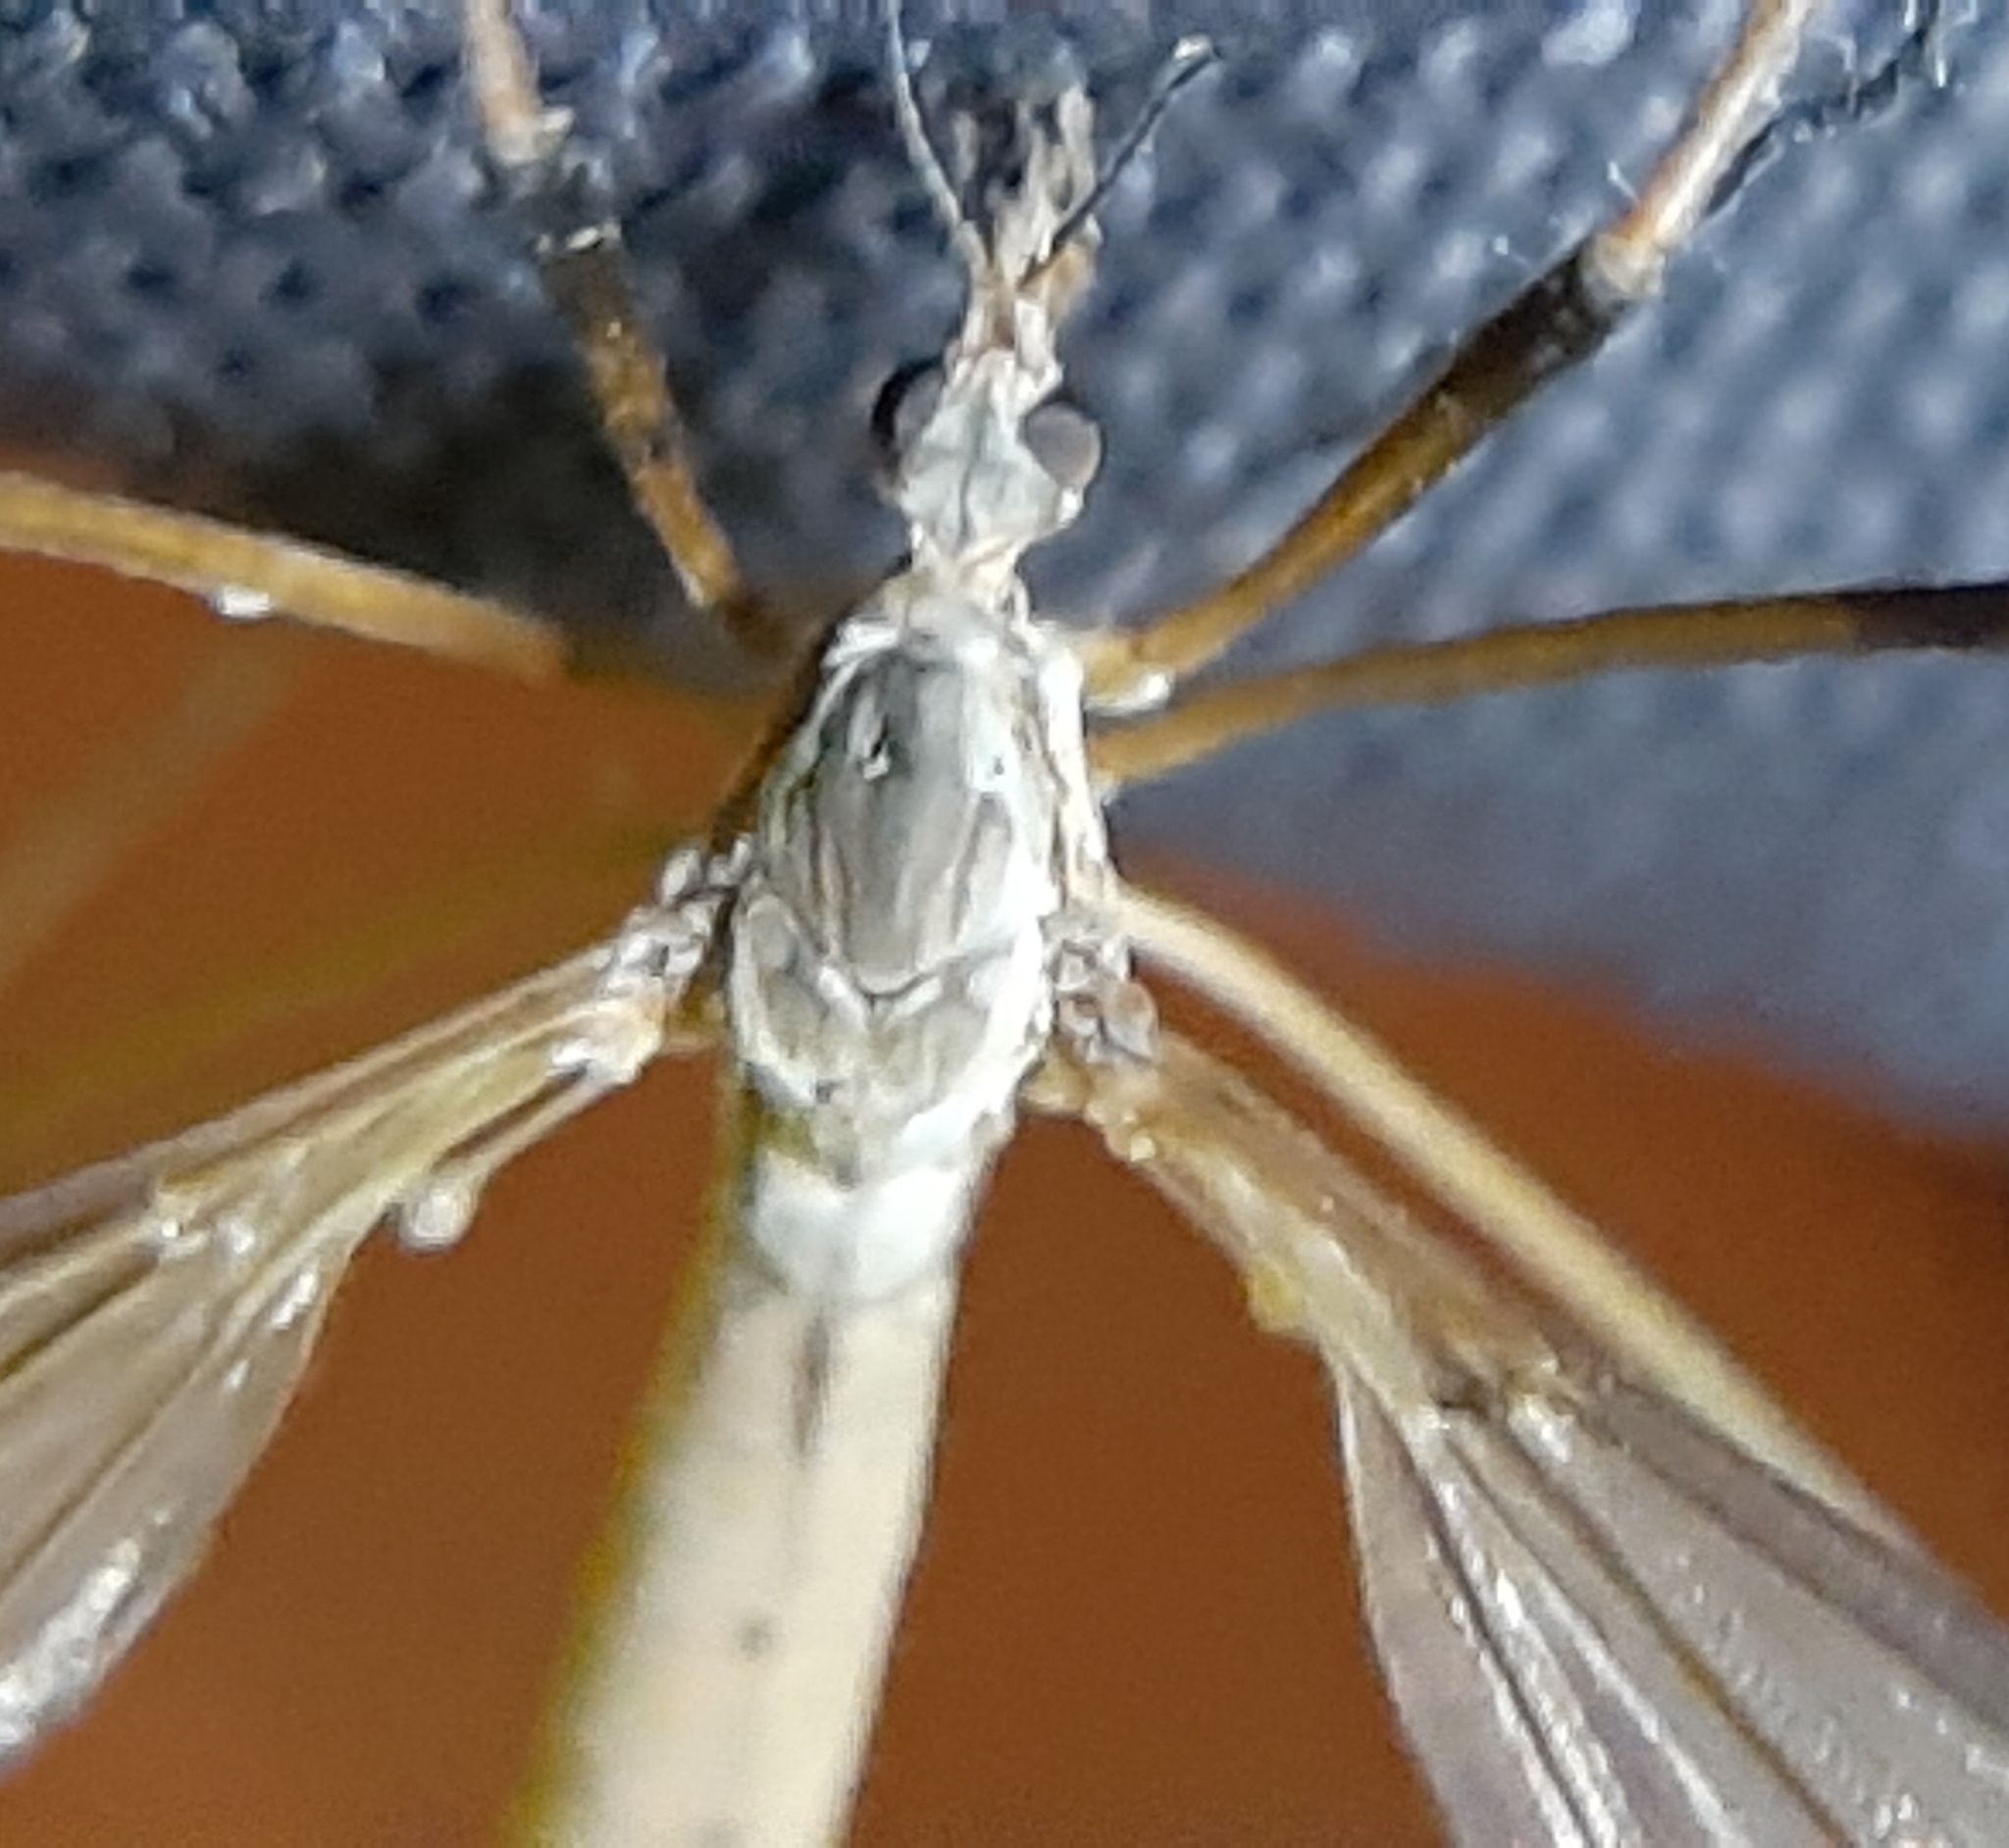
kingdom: Animalia
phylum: Arthropoda
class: Insecta
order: Diptera
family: Tipulidae
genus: Tipula
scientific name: Tipula paludosa
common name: European cranefly
